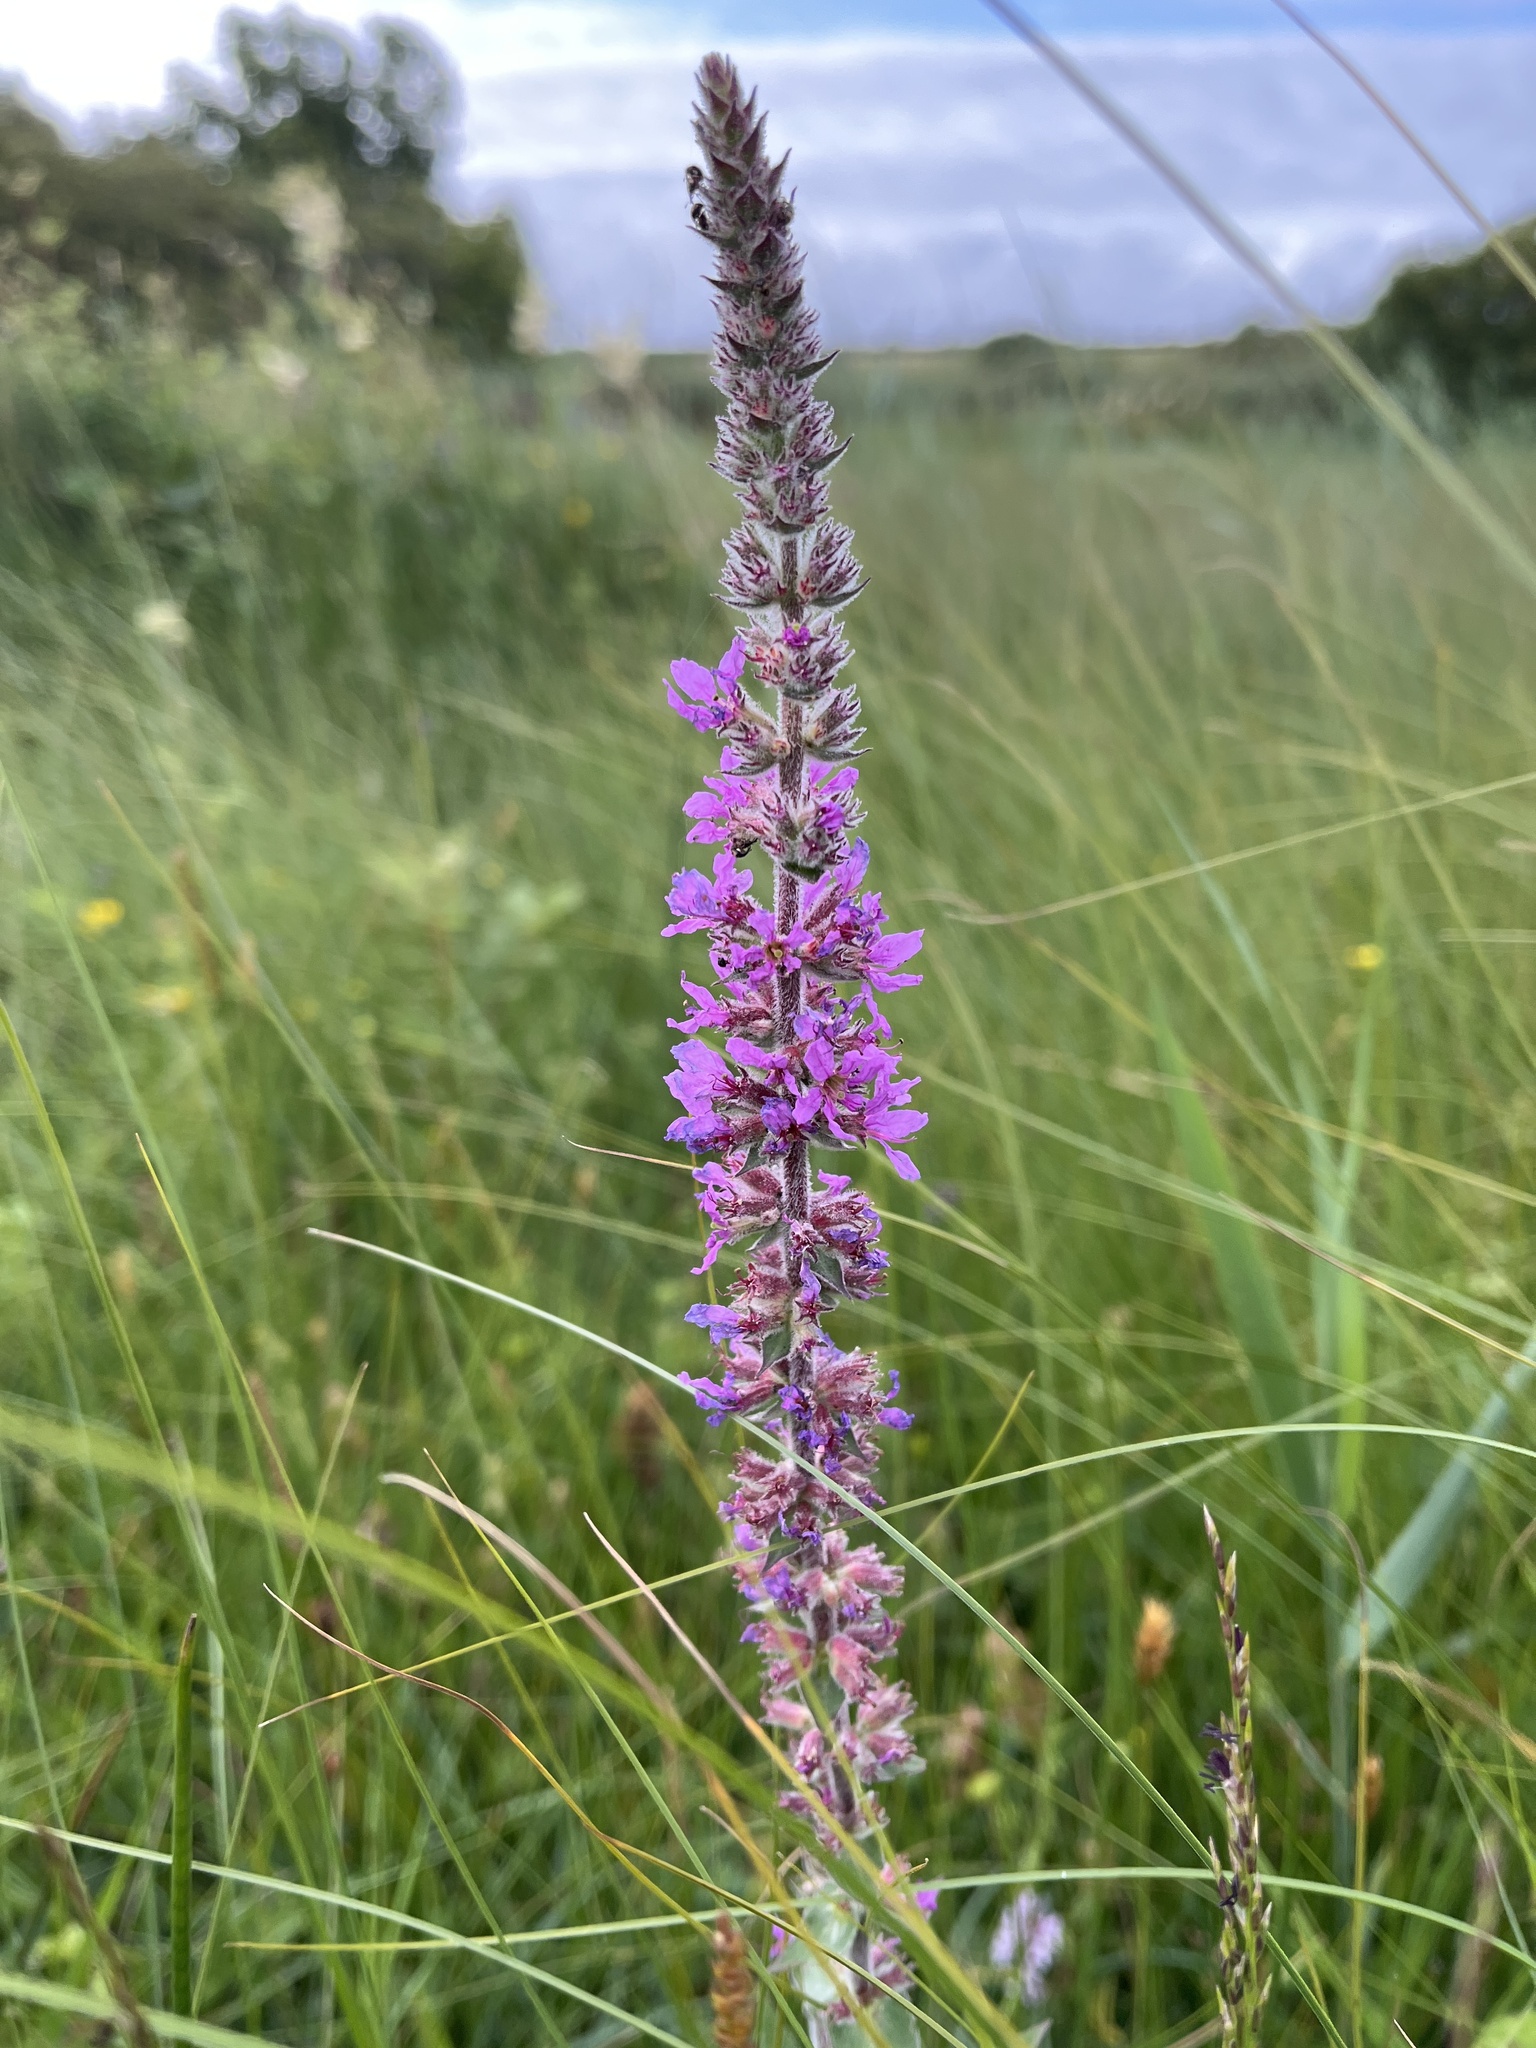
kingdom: Plantae
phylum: Tracheophyta
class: Magnoliopsida
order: Myrtales
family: Lythraceae
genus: Lythrum
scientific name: Lythrum salicaria
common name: Purple loosestrife
